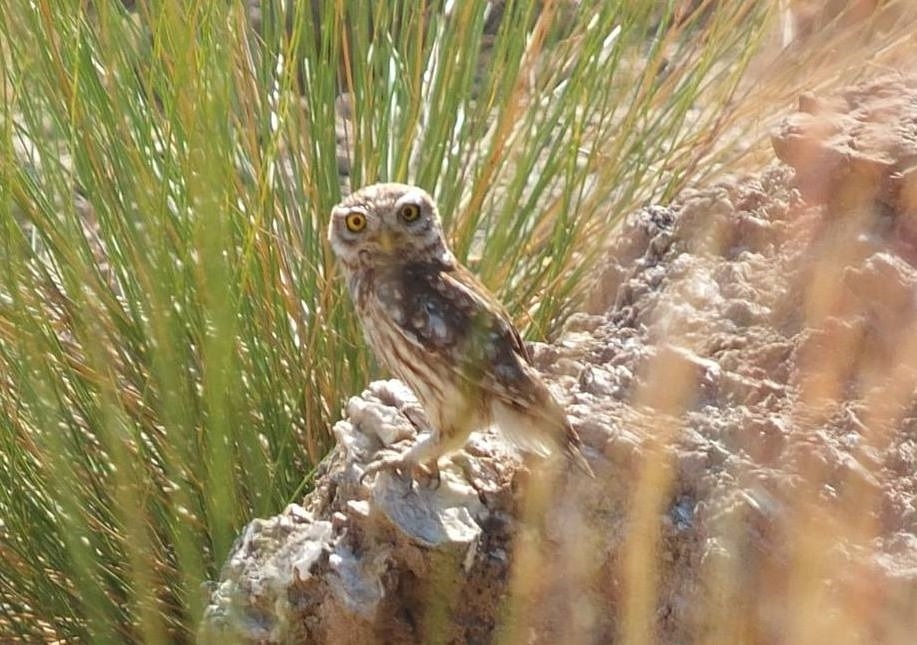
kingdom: Animalia
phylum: Chordata
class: Aves
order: Strigiformes
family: Strigidae
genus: Athene
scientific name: Athene noctua
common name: Little owl
